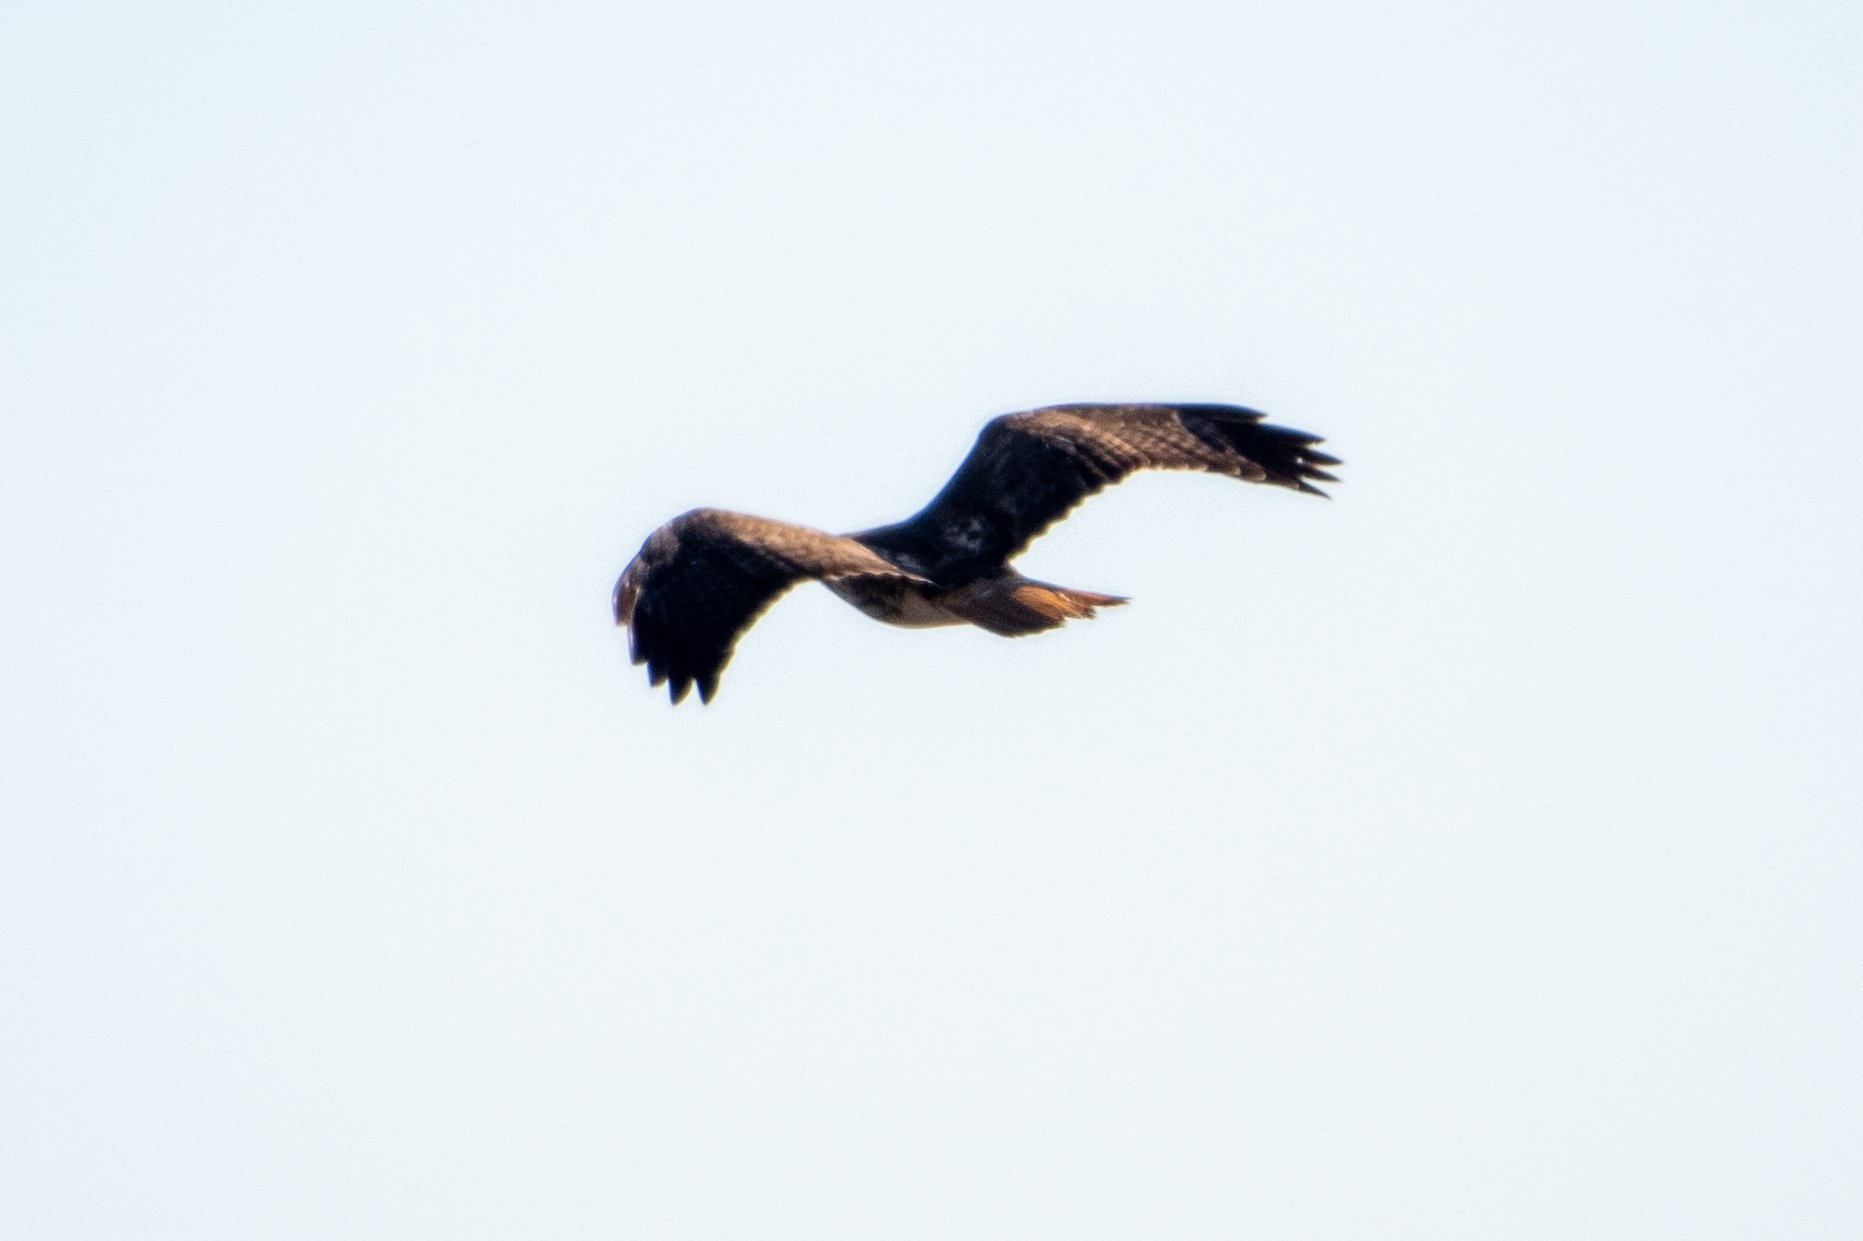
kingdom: Animalia
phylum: Chordata
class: Aves
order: Accipitriformes
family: Accipitridae
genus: Buteo
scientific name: Buteo jamaicensis
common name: Red-tailed hawk
